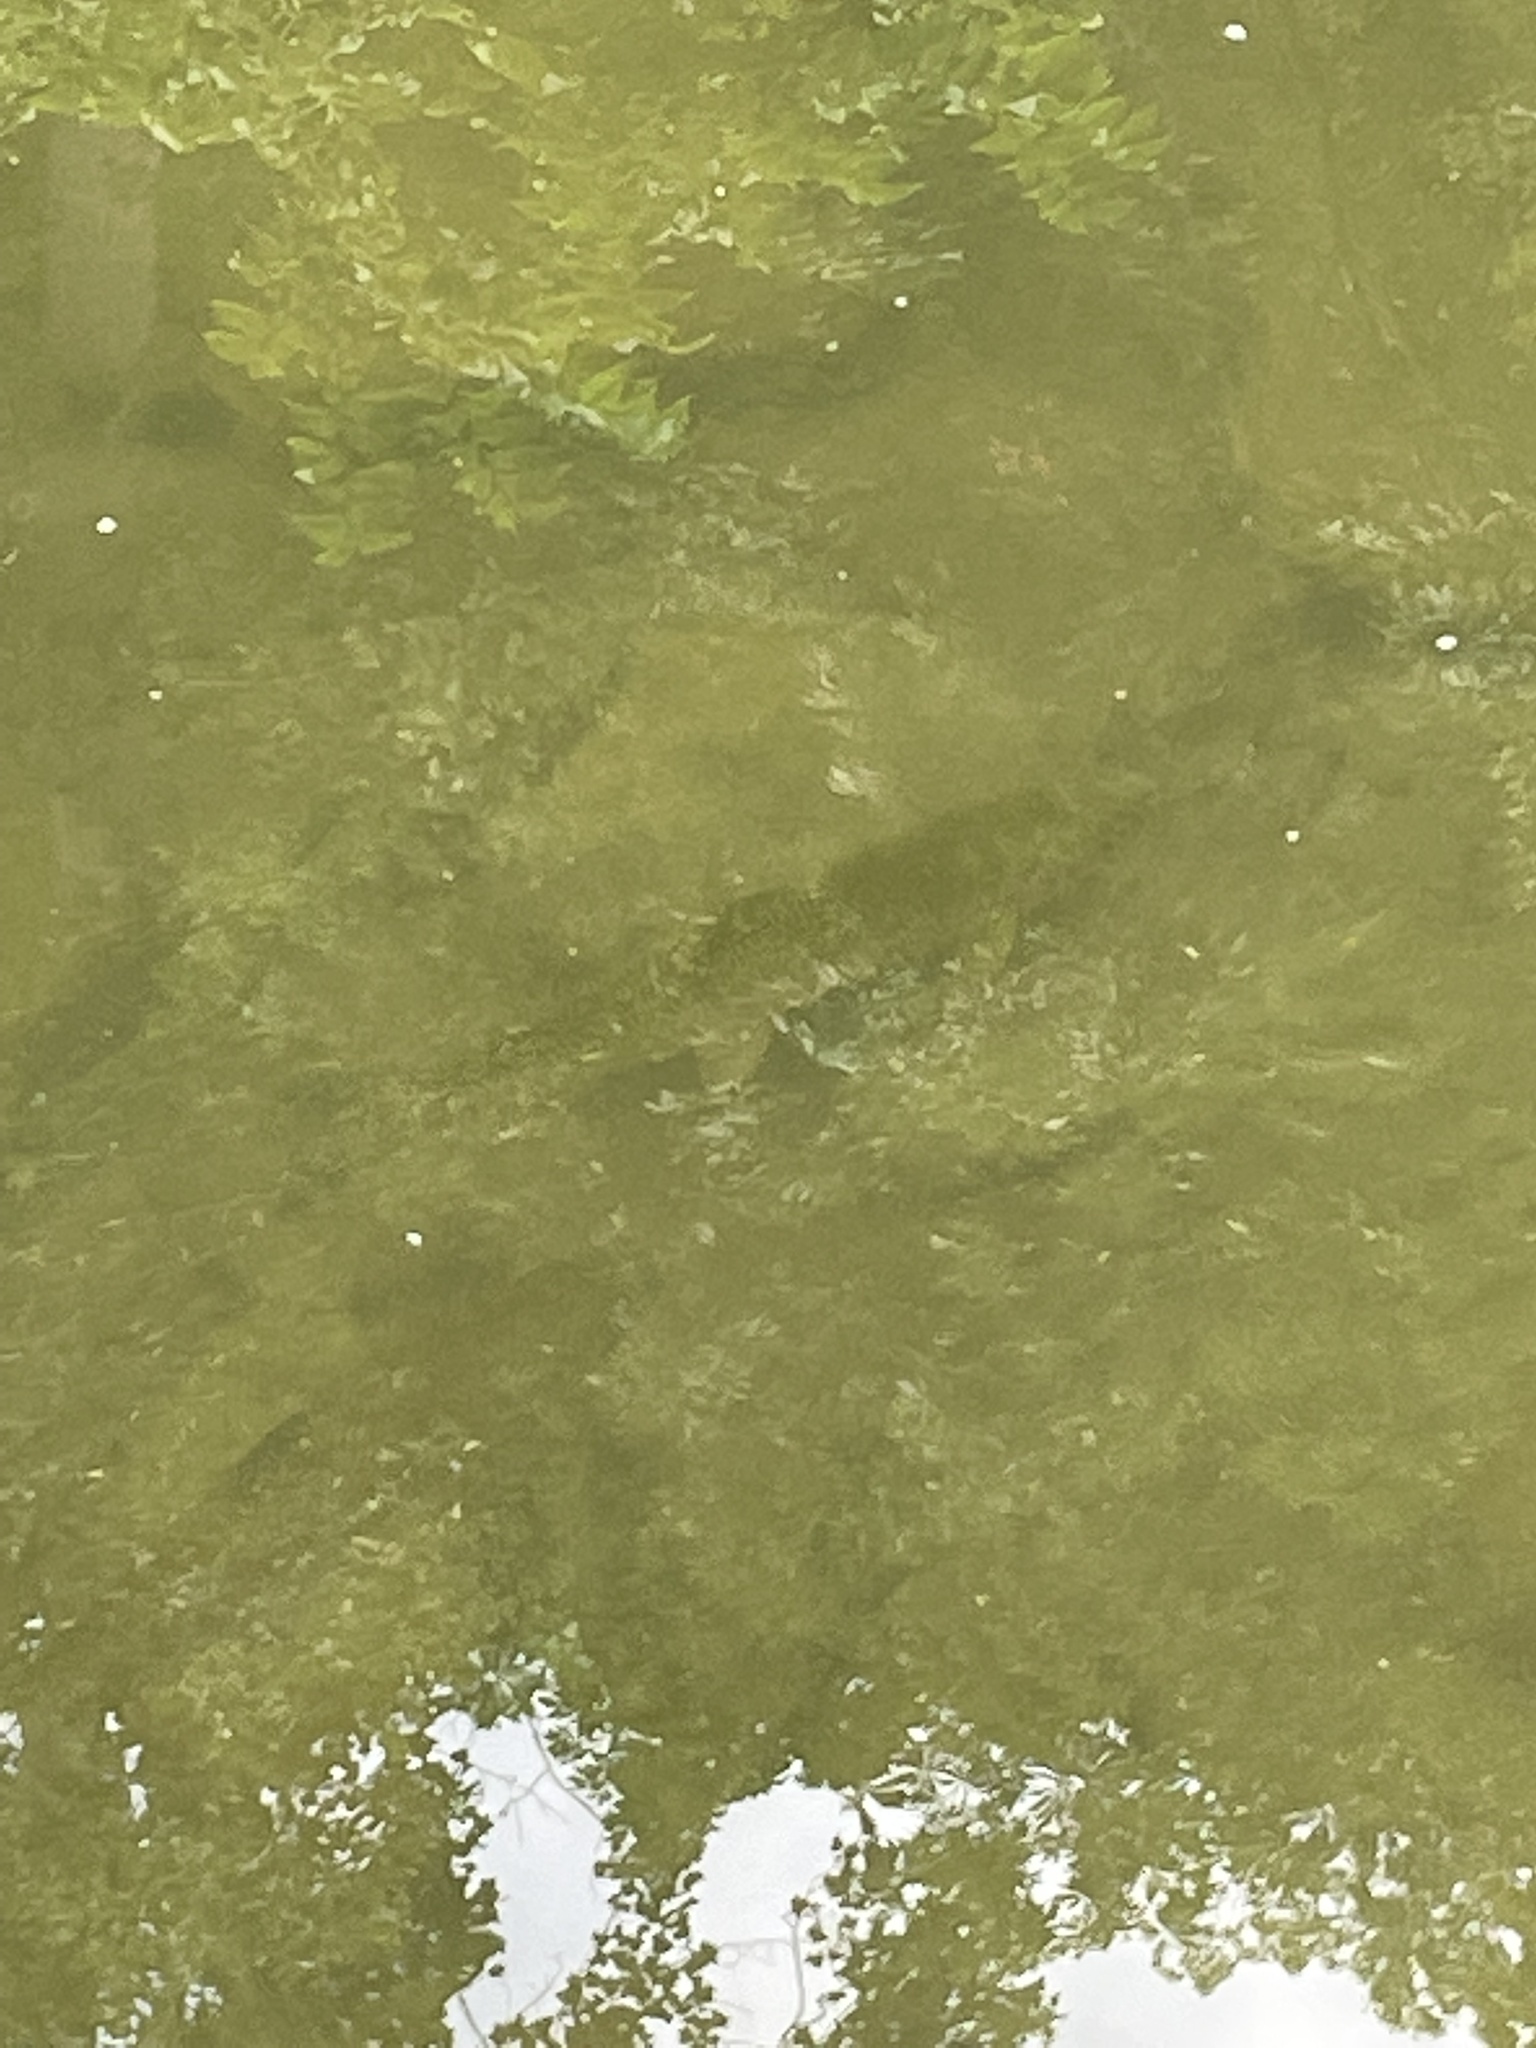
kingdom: Animalia
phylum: Chordata
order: Salmoniformes
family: Salmonidae
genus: Oncorhynchus
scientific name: Oncorhynchus mykiss
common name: Rainbow trout
